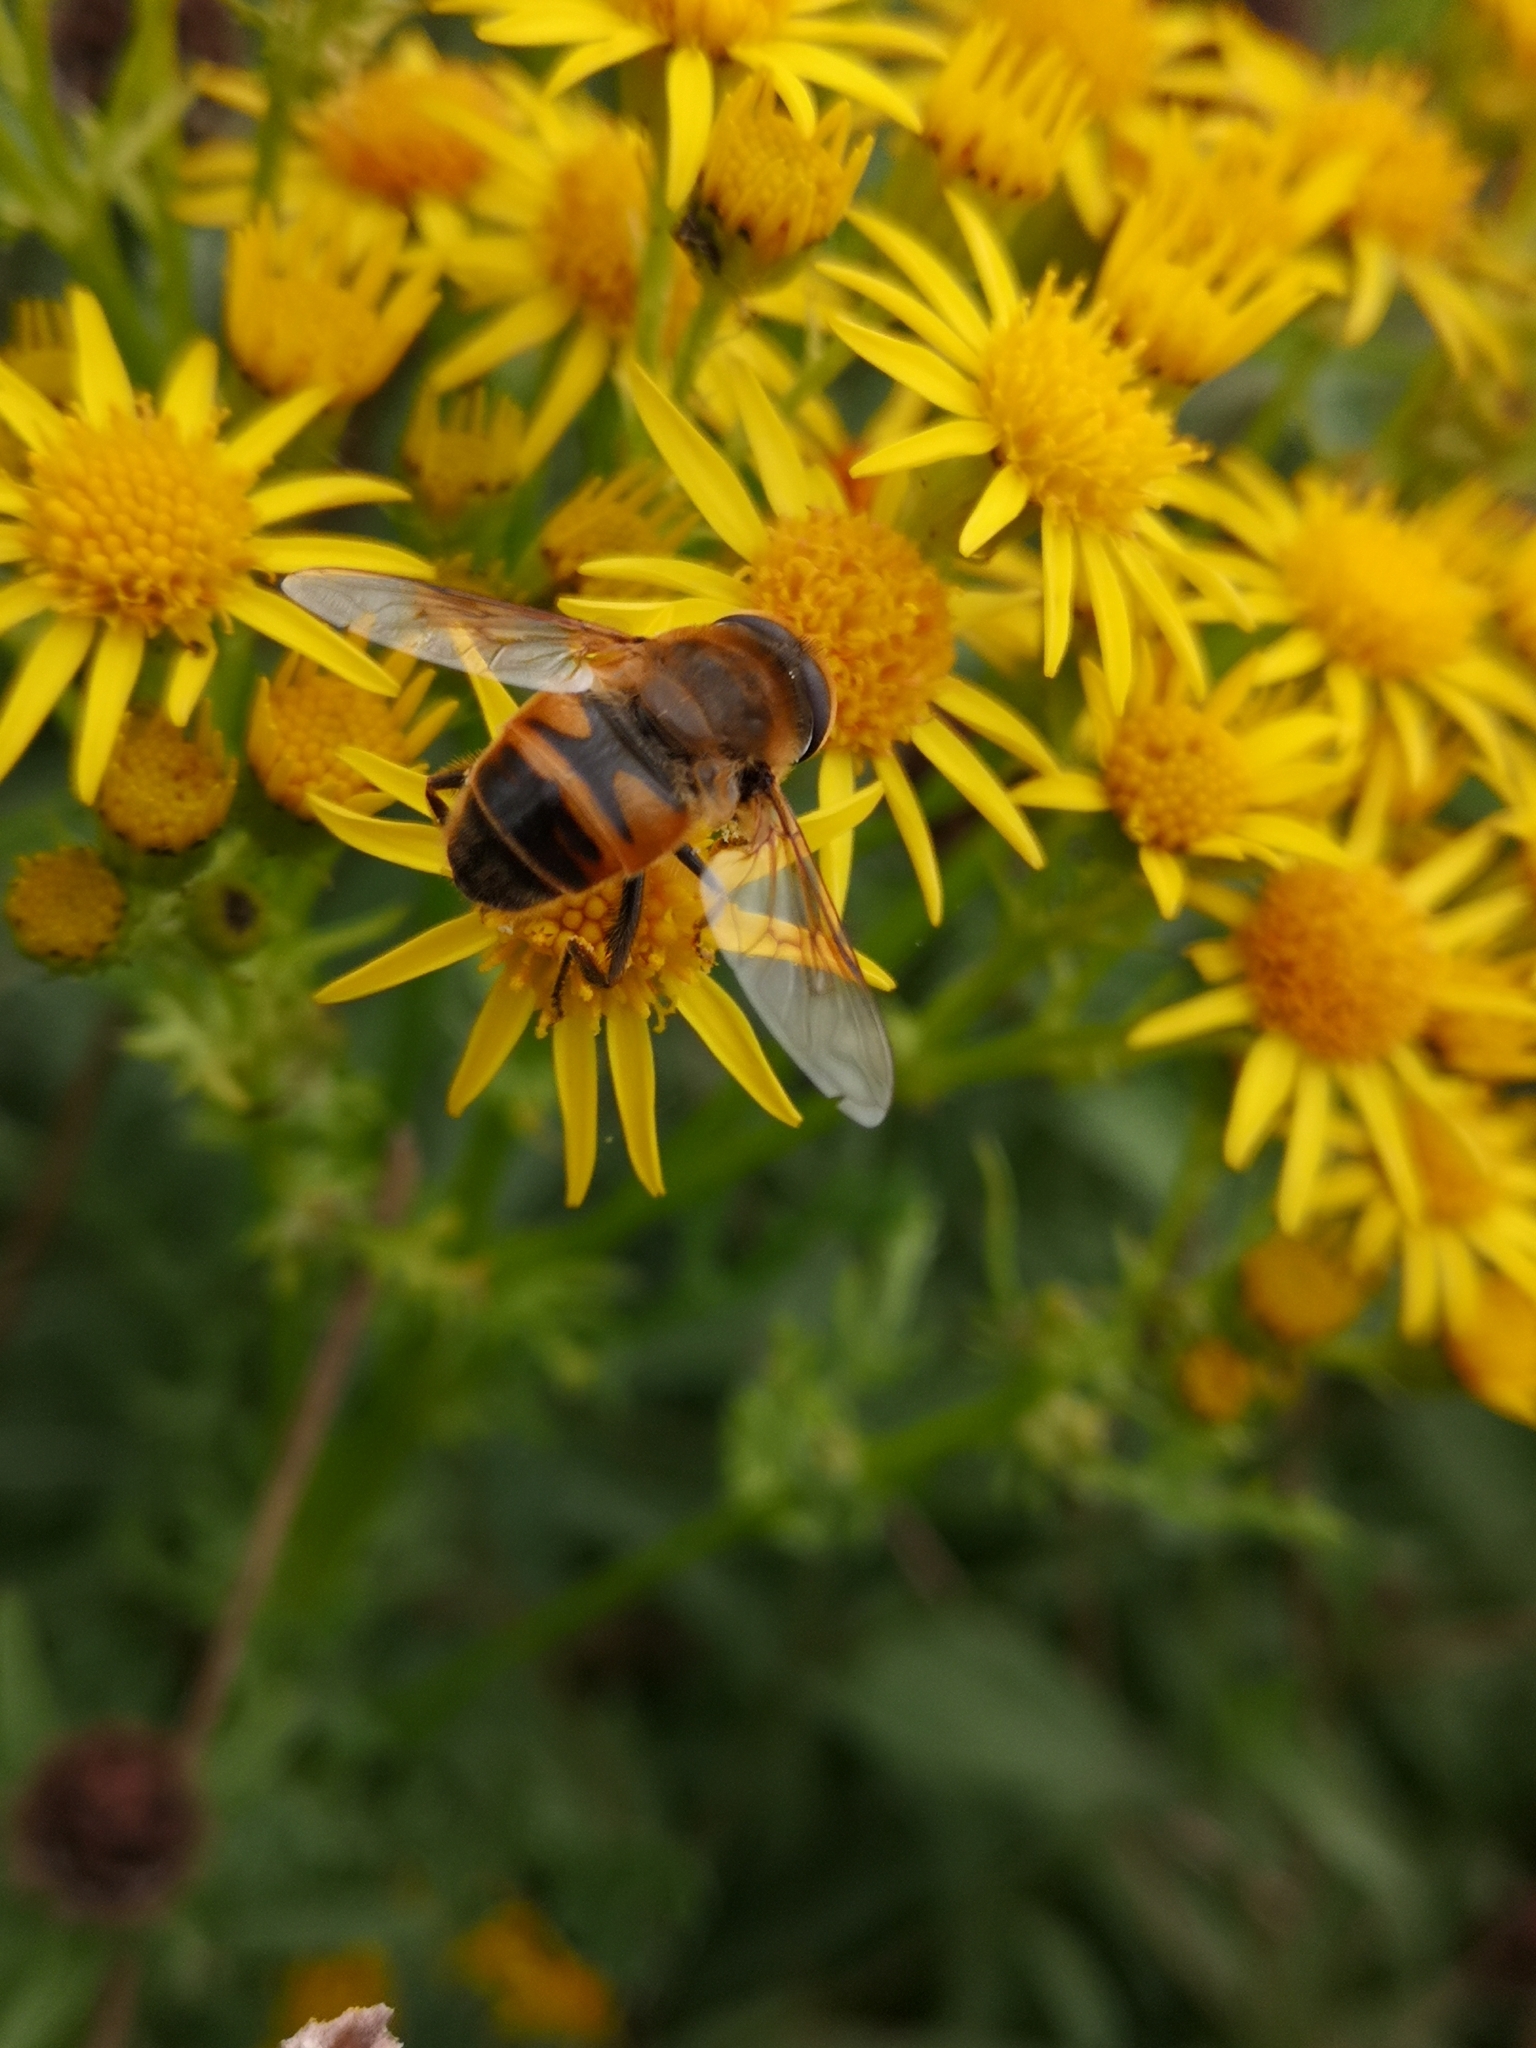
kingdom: Animalia
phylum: Arthropoda
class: Insecta
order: Diptera
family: Syrphidae
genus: Eristalis
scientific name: Eristalis tenax
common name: Drone fly
